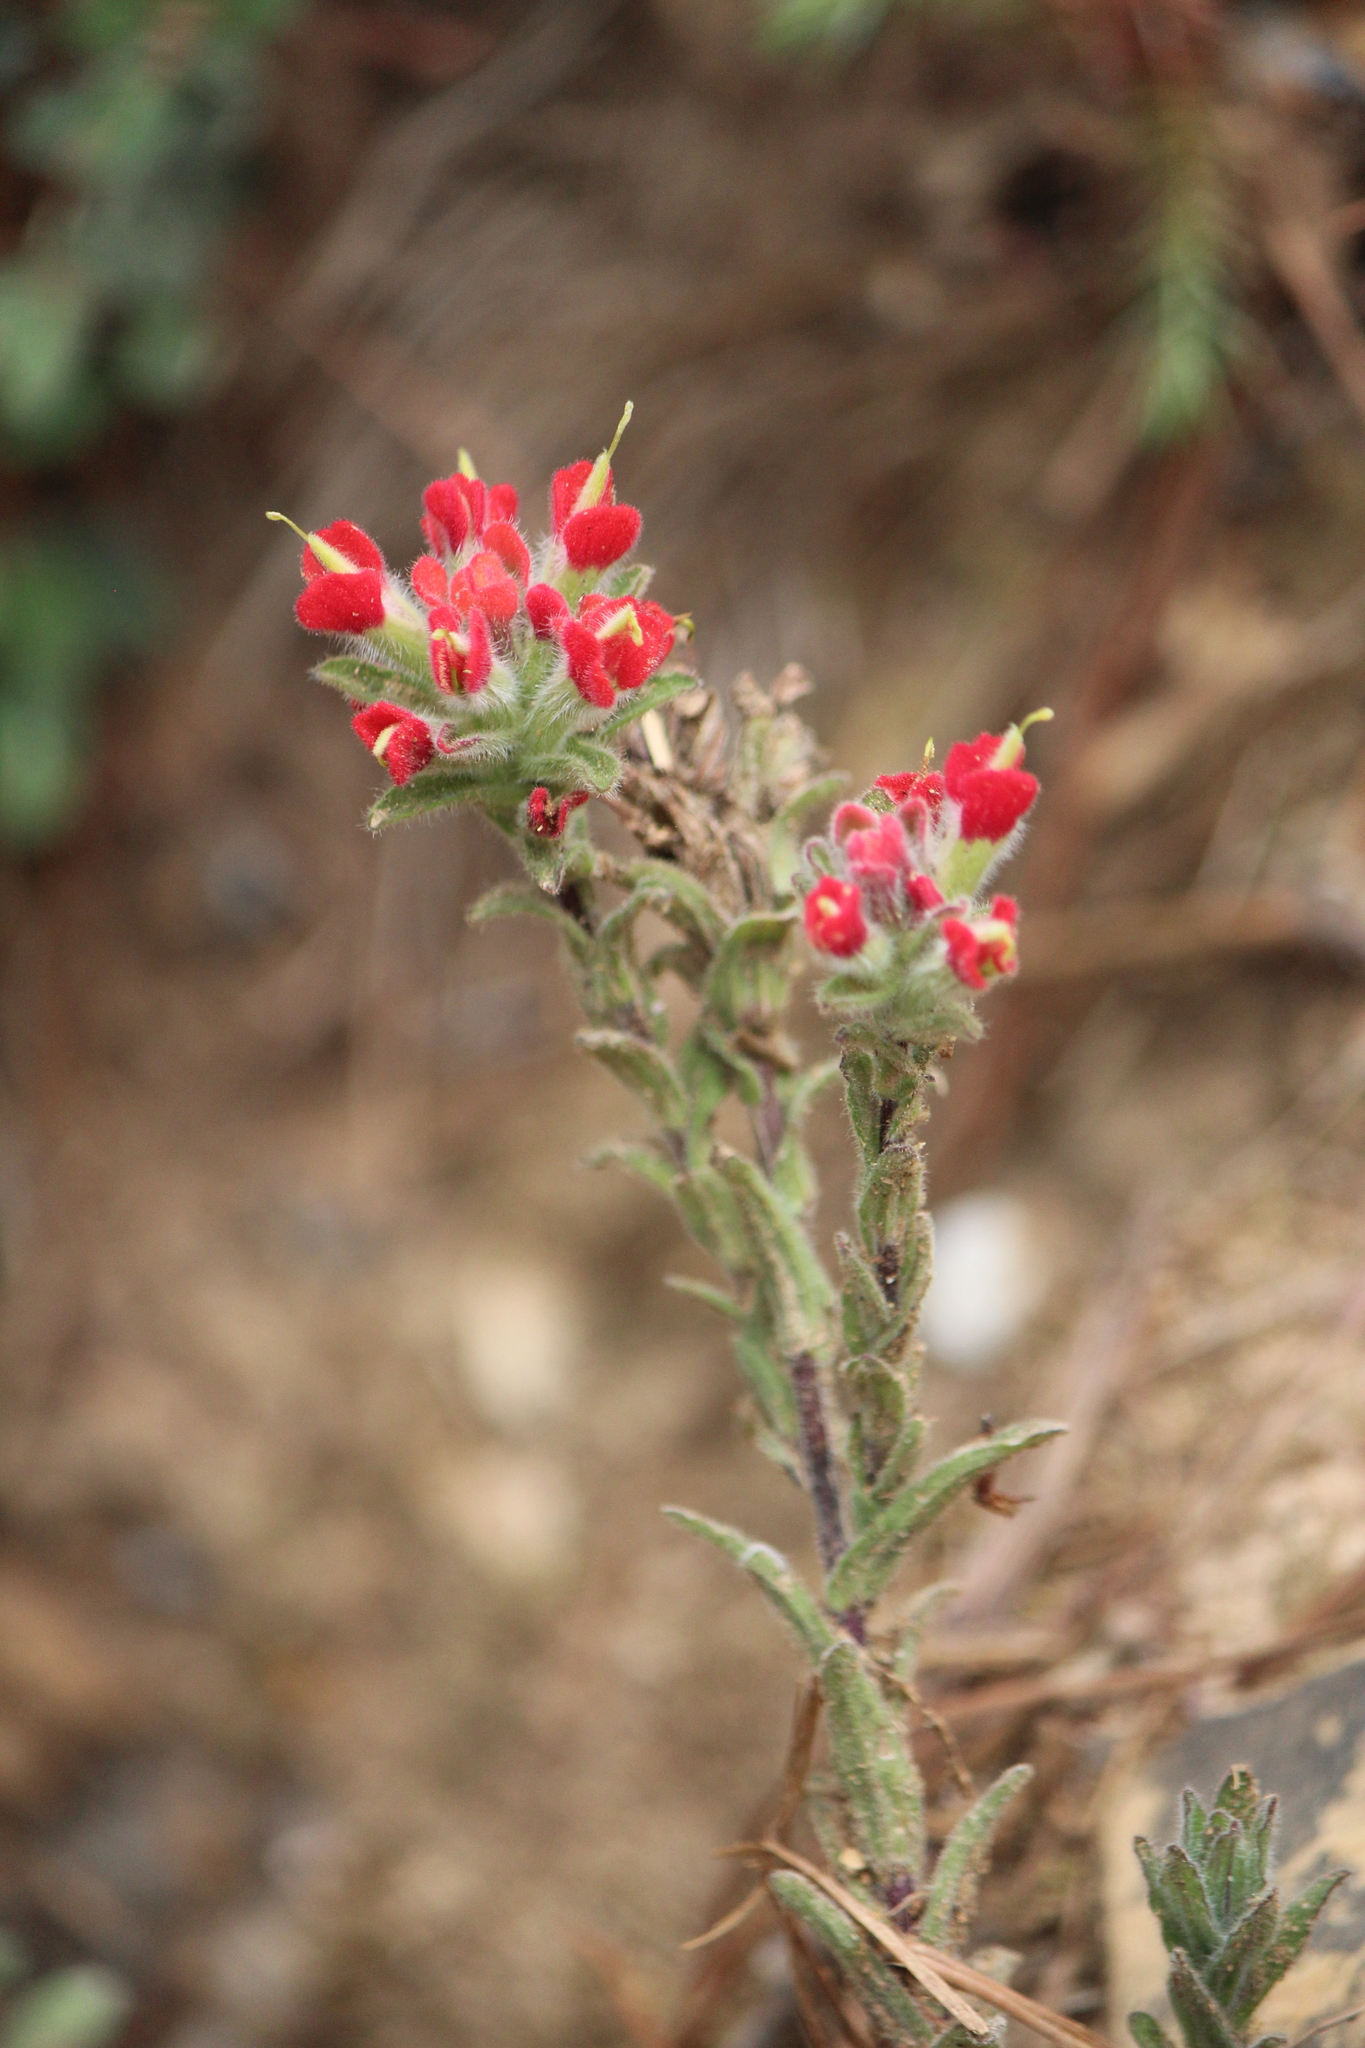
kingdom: Plantae
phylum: Tracheophyta
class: Magnoliopsida
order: Lamiales
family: Orobanchaceae
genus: Castilleja
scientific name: Castilleja scorzonerifolia
